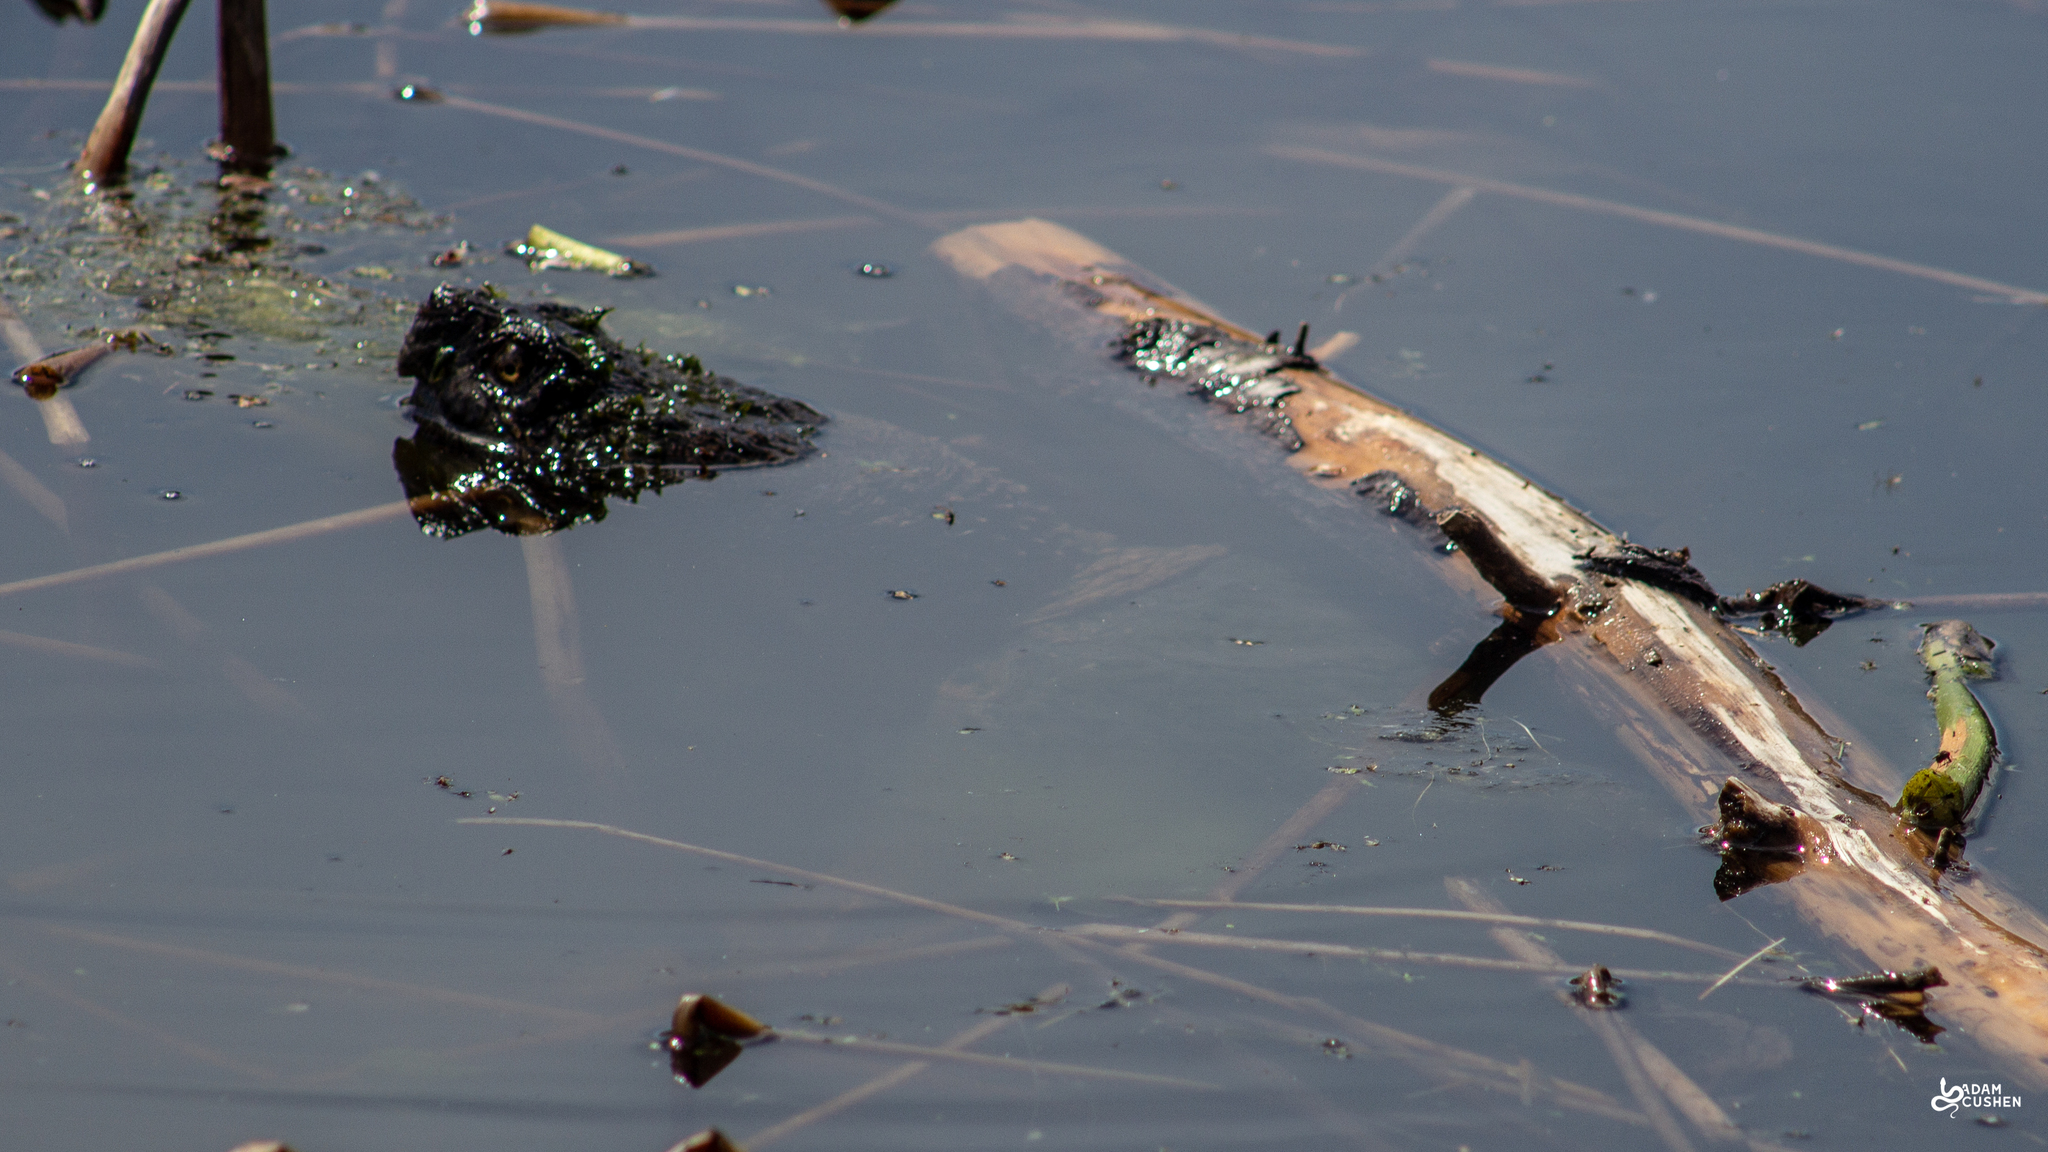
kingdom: Animalia
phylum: Chordata
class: Testudines
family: Chelydridae
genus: Chelydra
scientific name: Chelydra serpentina
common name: Common snapping turtle
